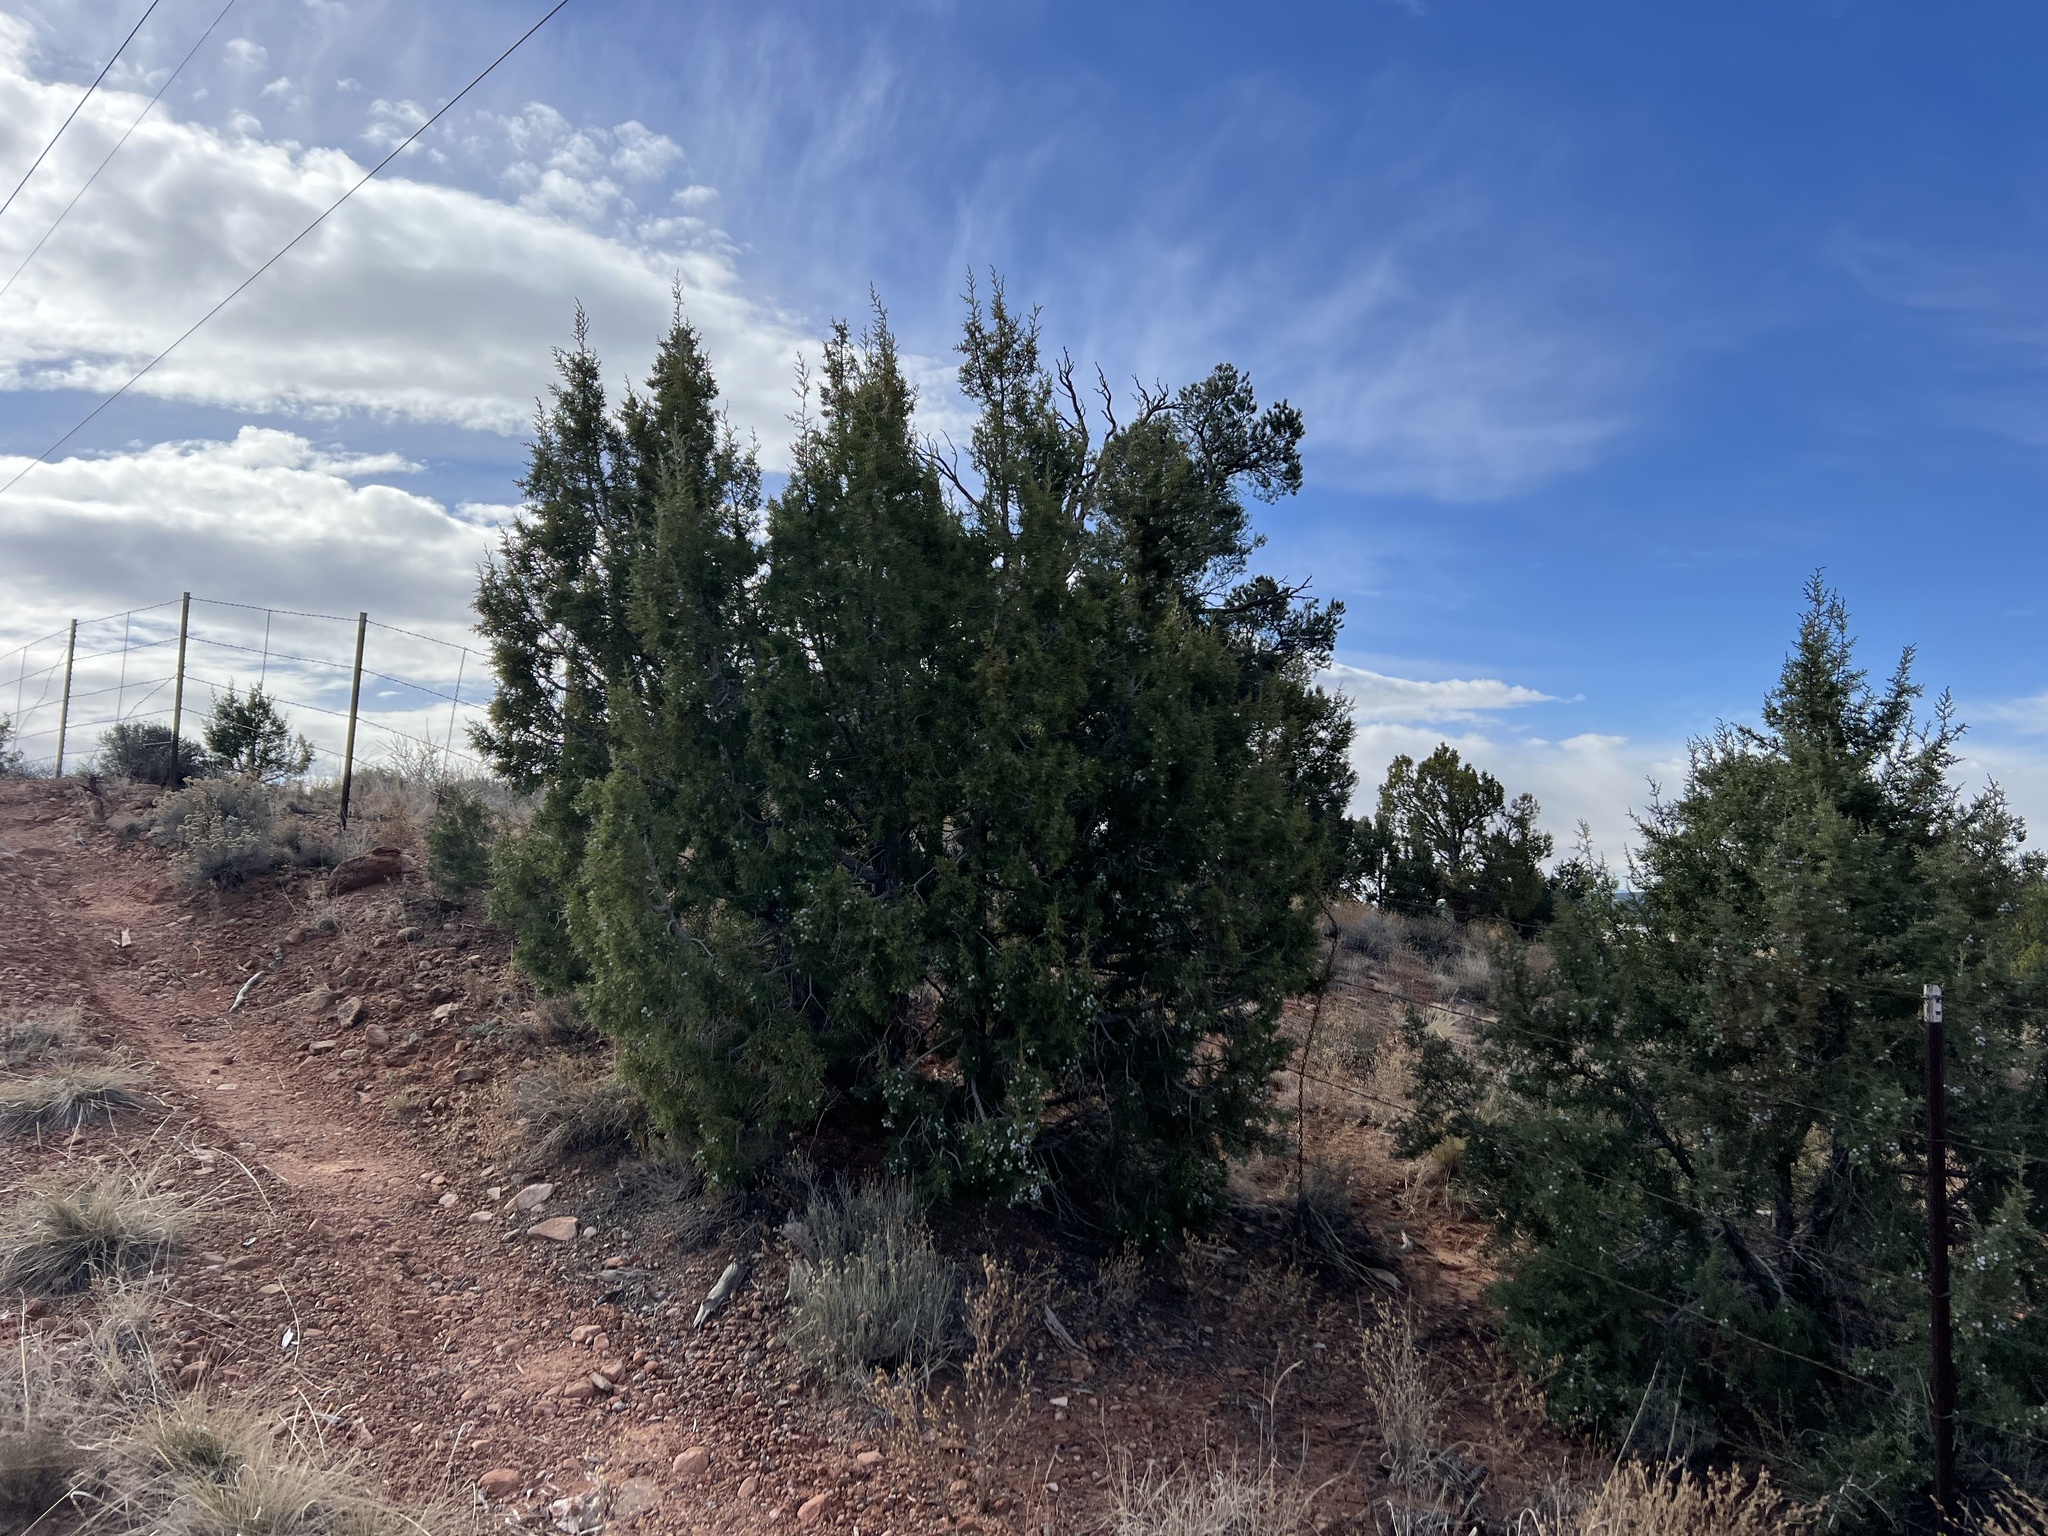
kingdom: Plantae
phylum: Tracheophyta
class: Pinopsida
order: Pinales
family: Cupressaceae
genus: Juniperus
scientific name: Juniperus osteosperma
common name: Utah juniper
